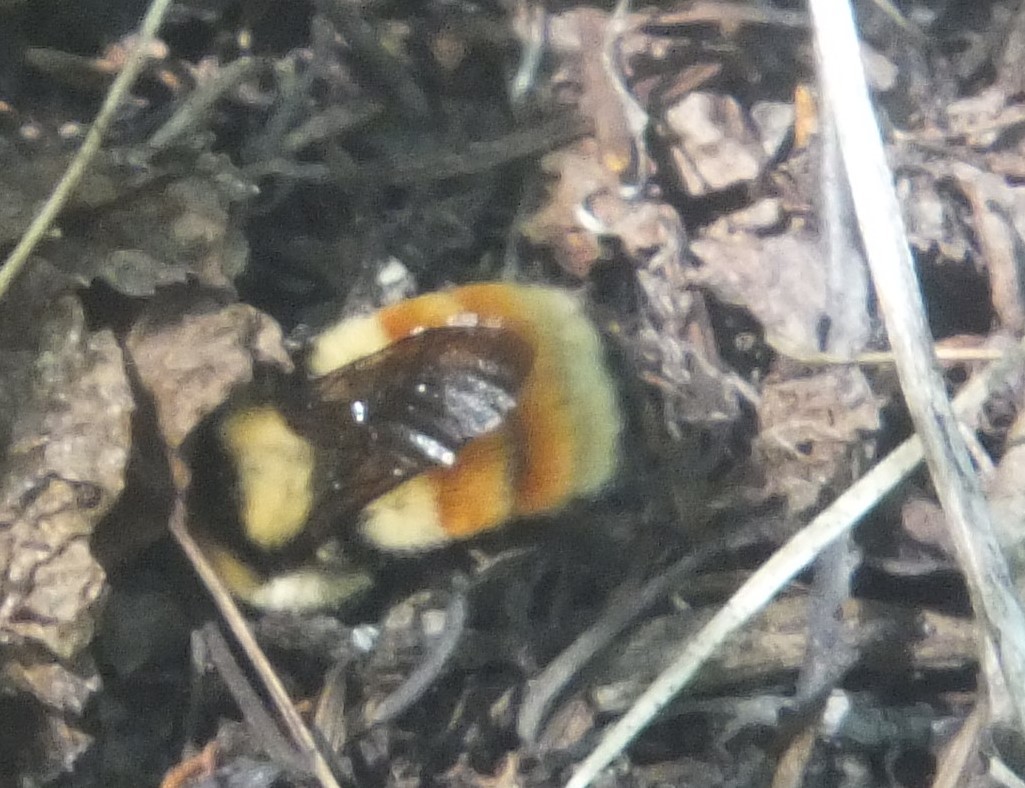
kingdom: Animalia
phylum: Arthropoda
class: Insecta
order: Hymenoptera
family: Apidae
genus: Bombus
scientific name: Bombus huntii
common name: Hunt bumble bee
